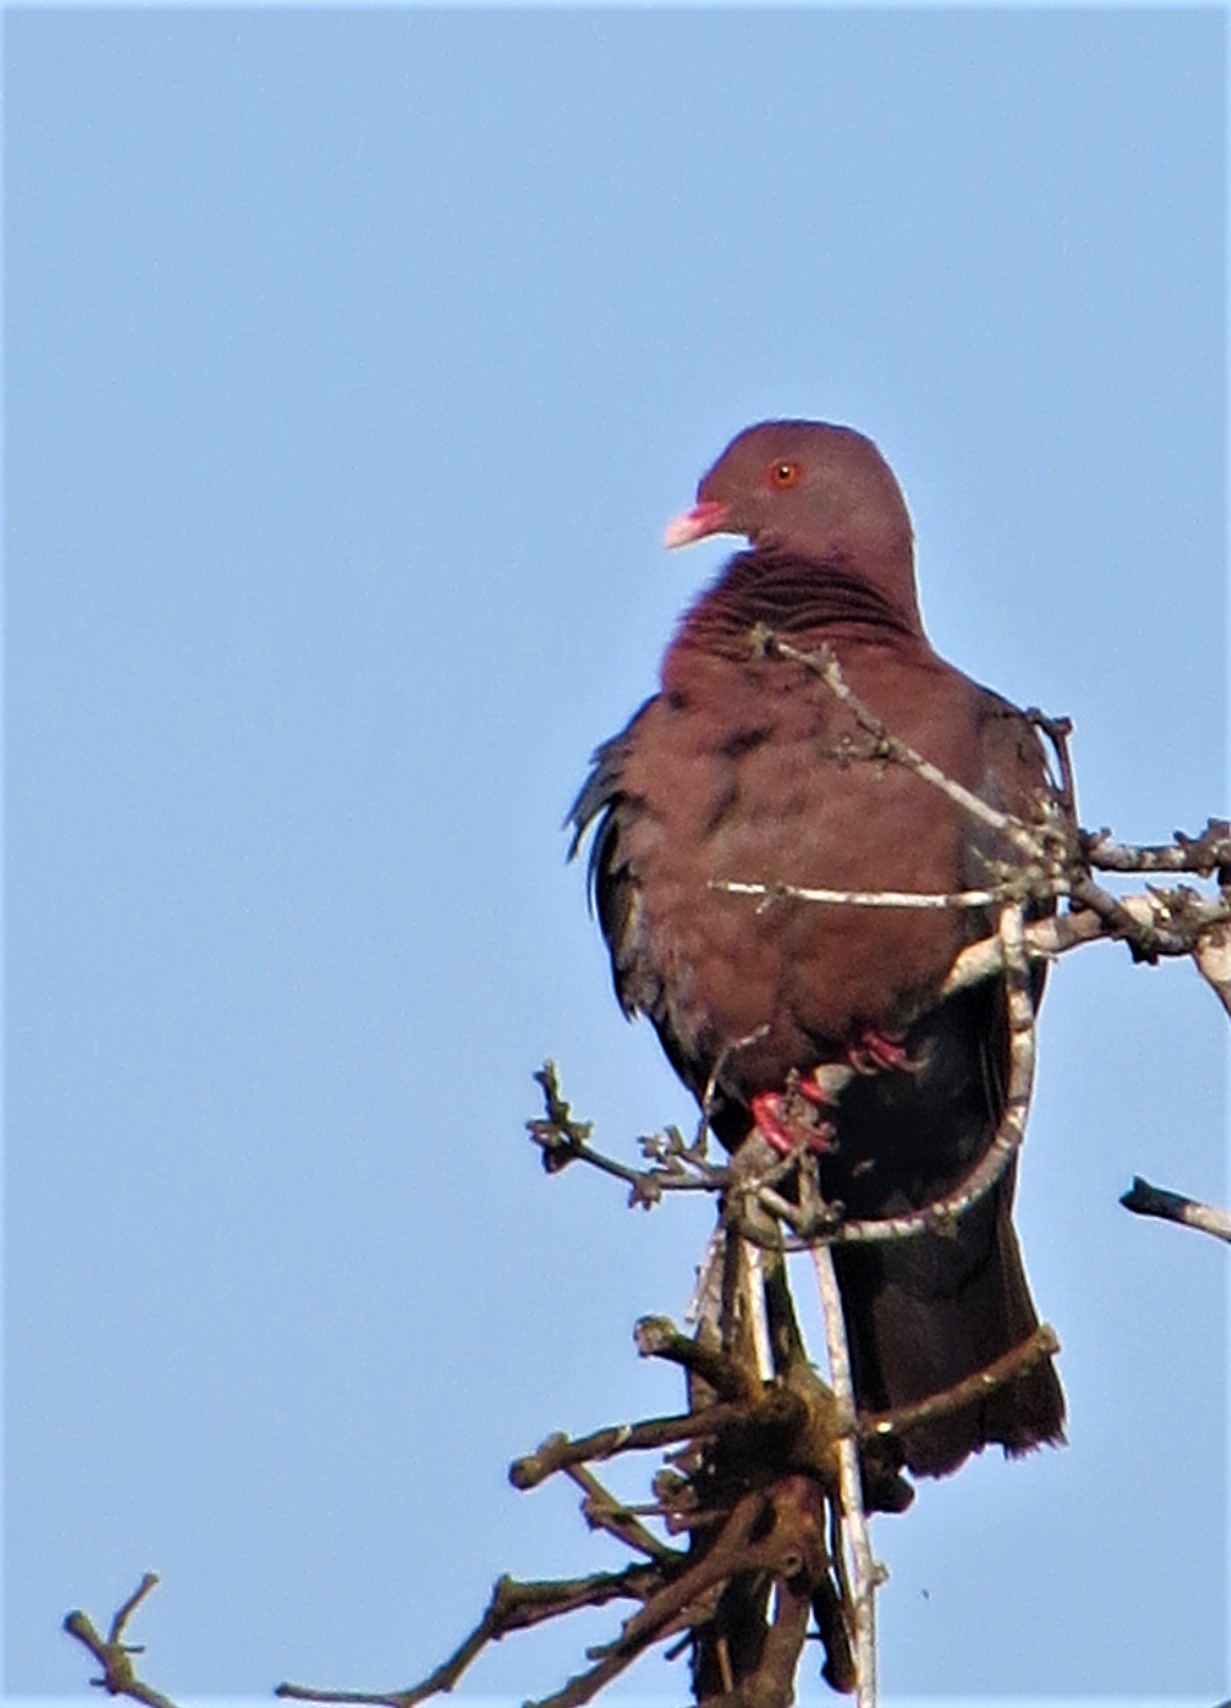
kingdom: Animalia
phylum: Chordata
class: Aves
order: Columbiformes
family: Columbidae
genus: Patagioenas
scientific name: Patagioenas flavirostris
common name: Red-billed pigeon
